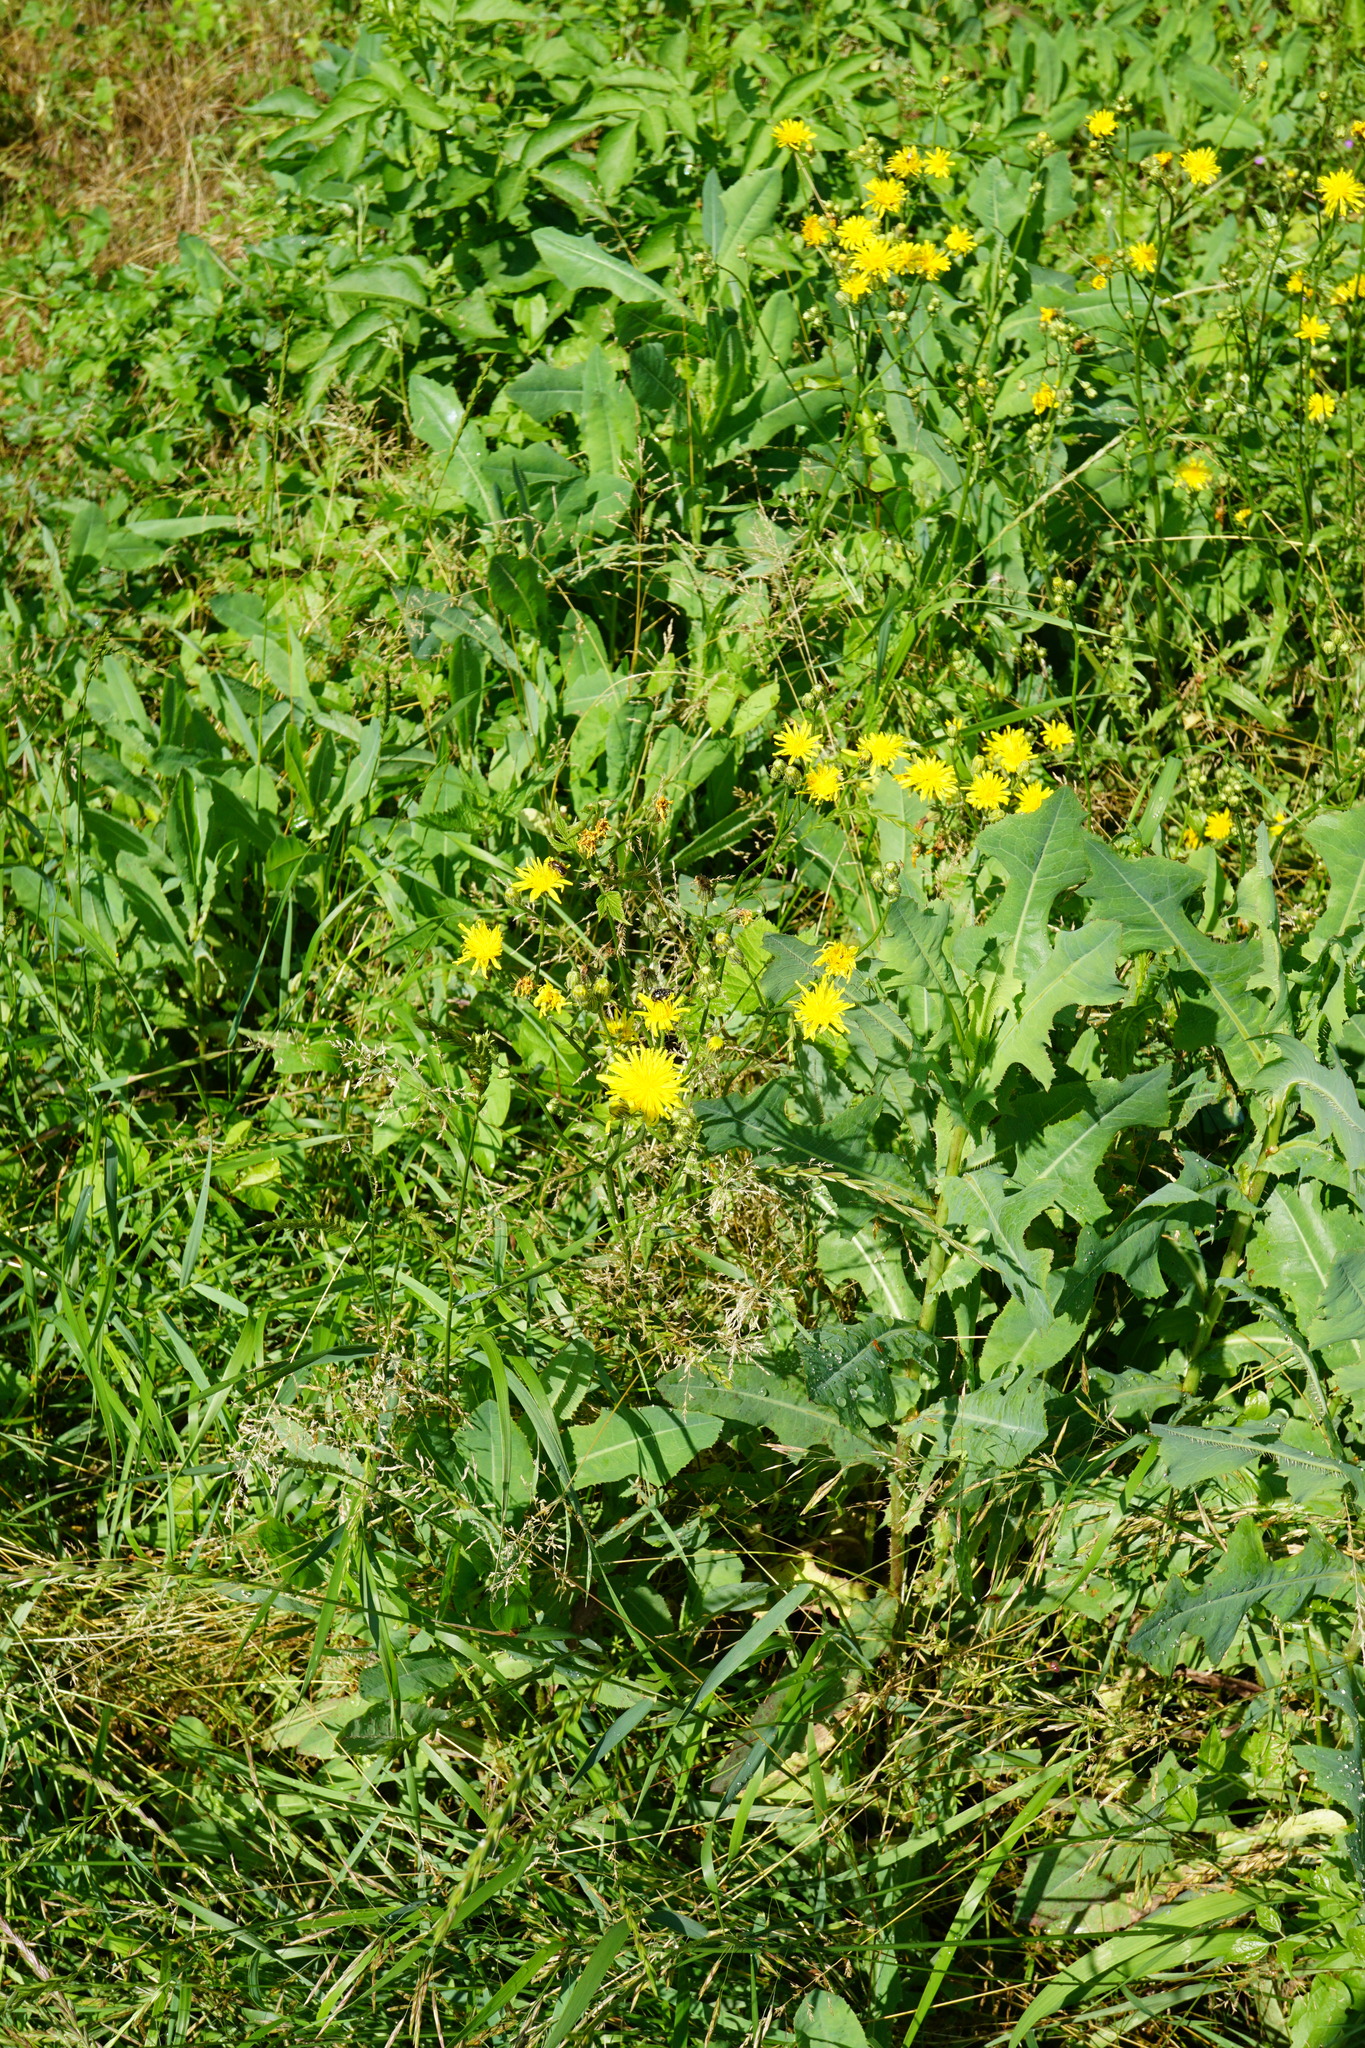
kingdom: Plantae
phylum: Tracheophyta
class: Magnoliopsida
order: Asterales
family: Asteraceae
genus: Crepis
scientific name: Crepis biennis
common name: Rough hawk's-beard
